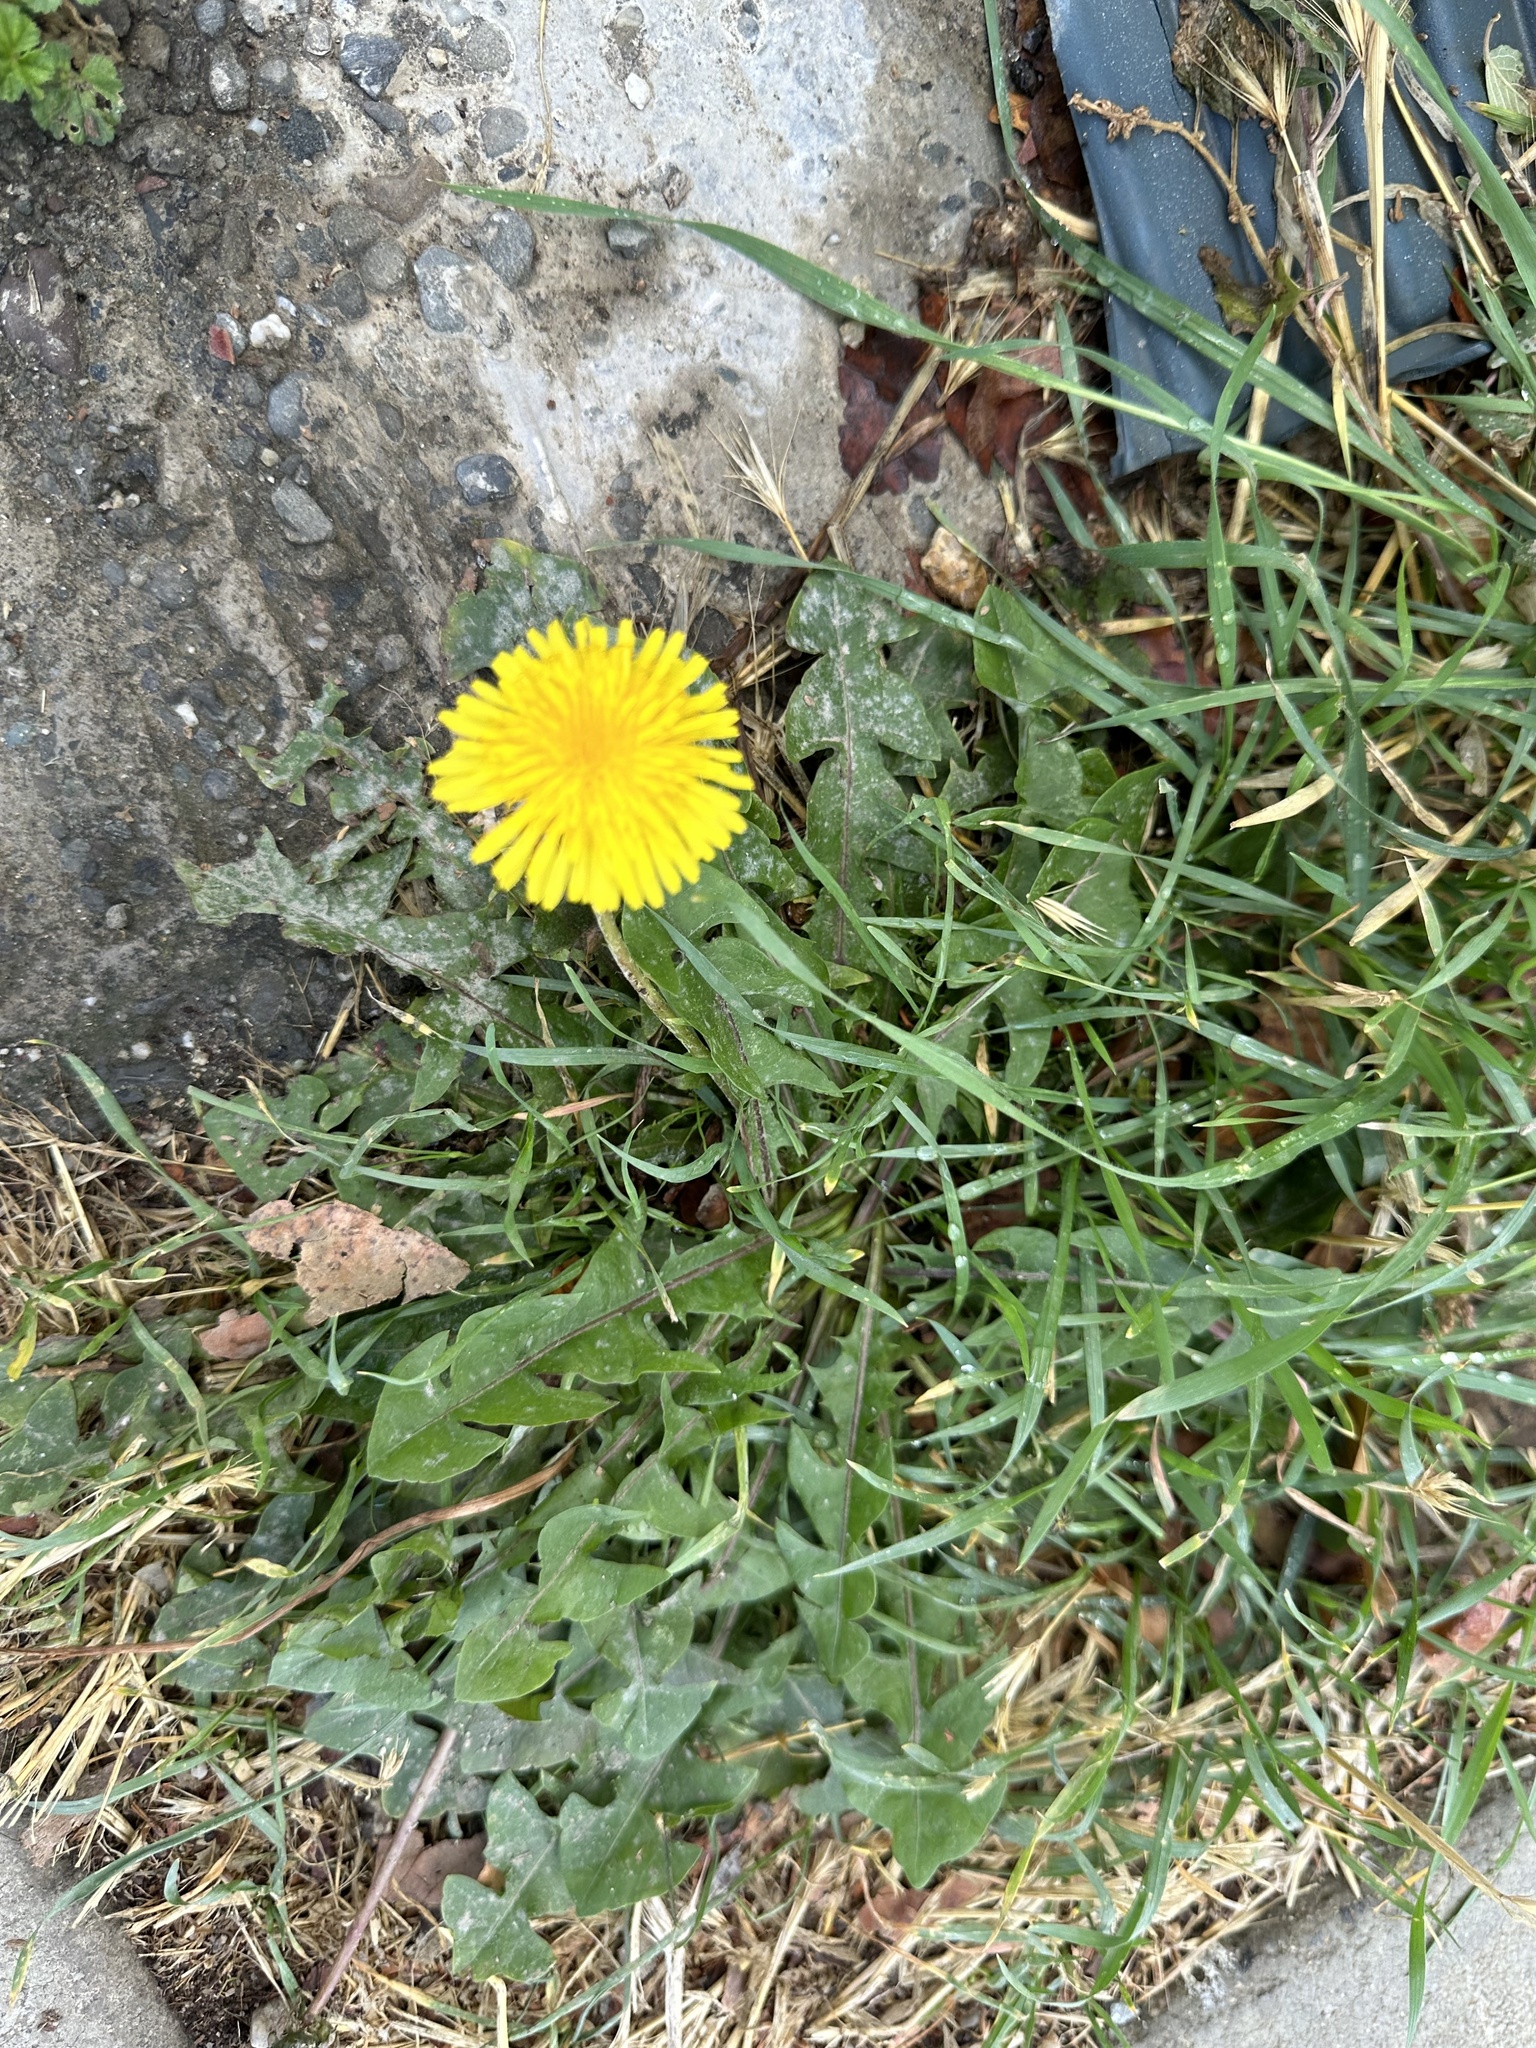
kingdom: Plantae
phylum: Tracheophyta
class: Magnoliopsida
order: Asterales
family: Asteraceae
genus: Taraxacum
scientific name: Taraxacum officinale
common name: Common dandelion
